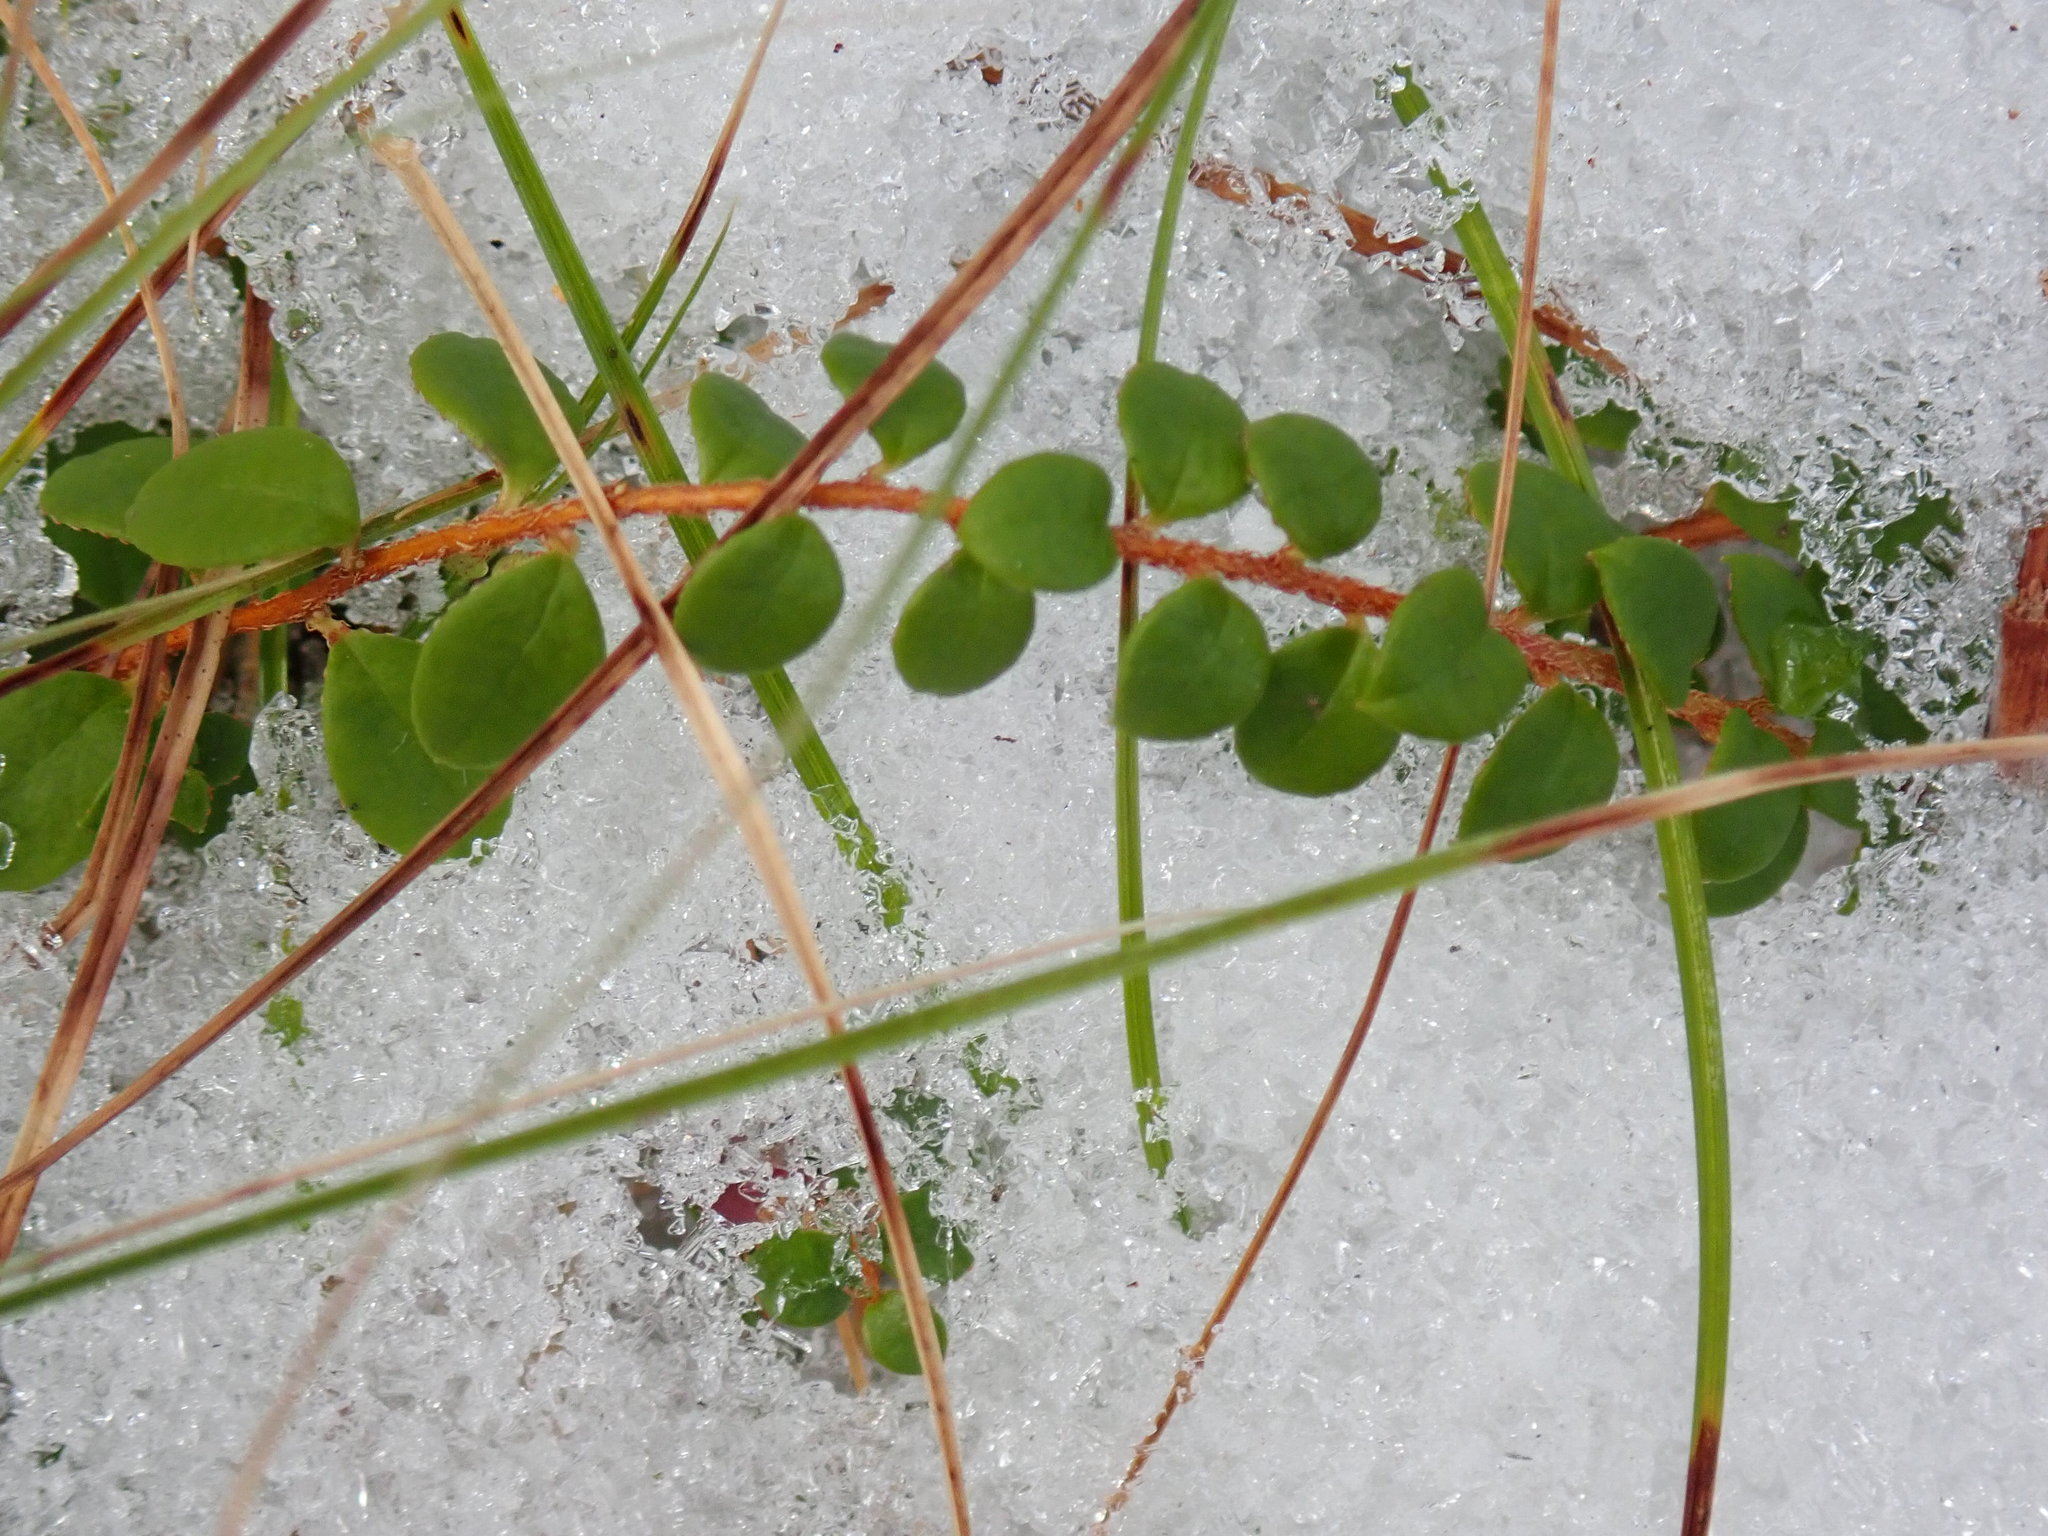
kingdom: Plantae
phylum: Tracheophyta
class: Magnoliopsida
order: Ericales
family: Ericaceae
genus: Gaultheria
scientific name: Gaultheria hispidula
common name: Cancer wintergreen
